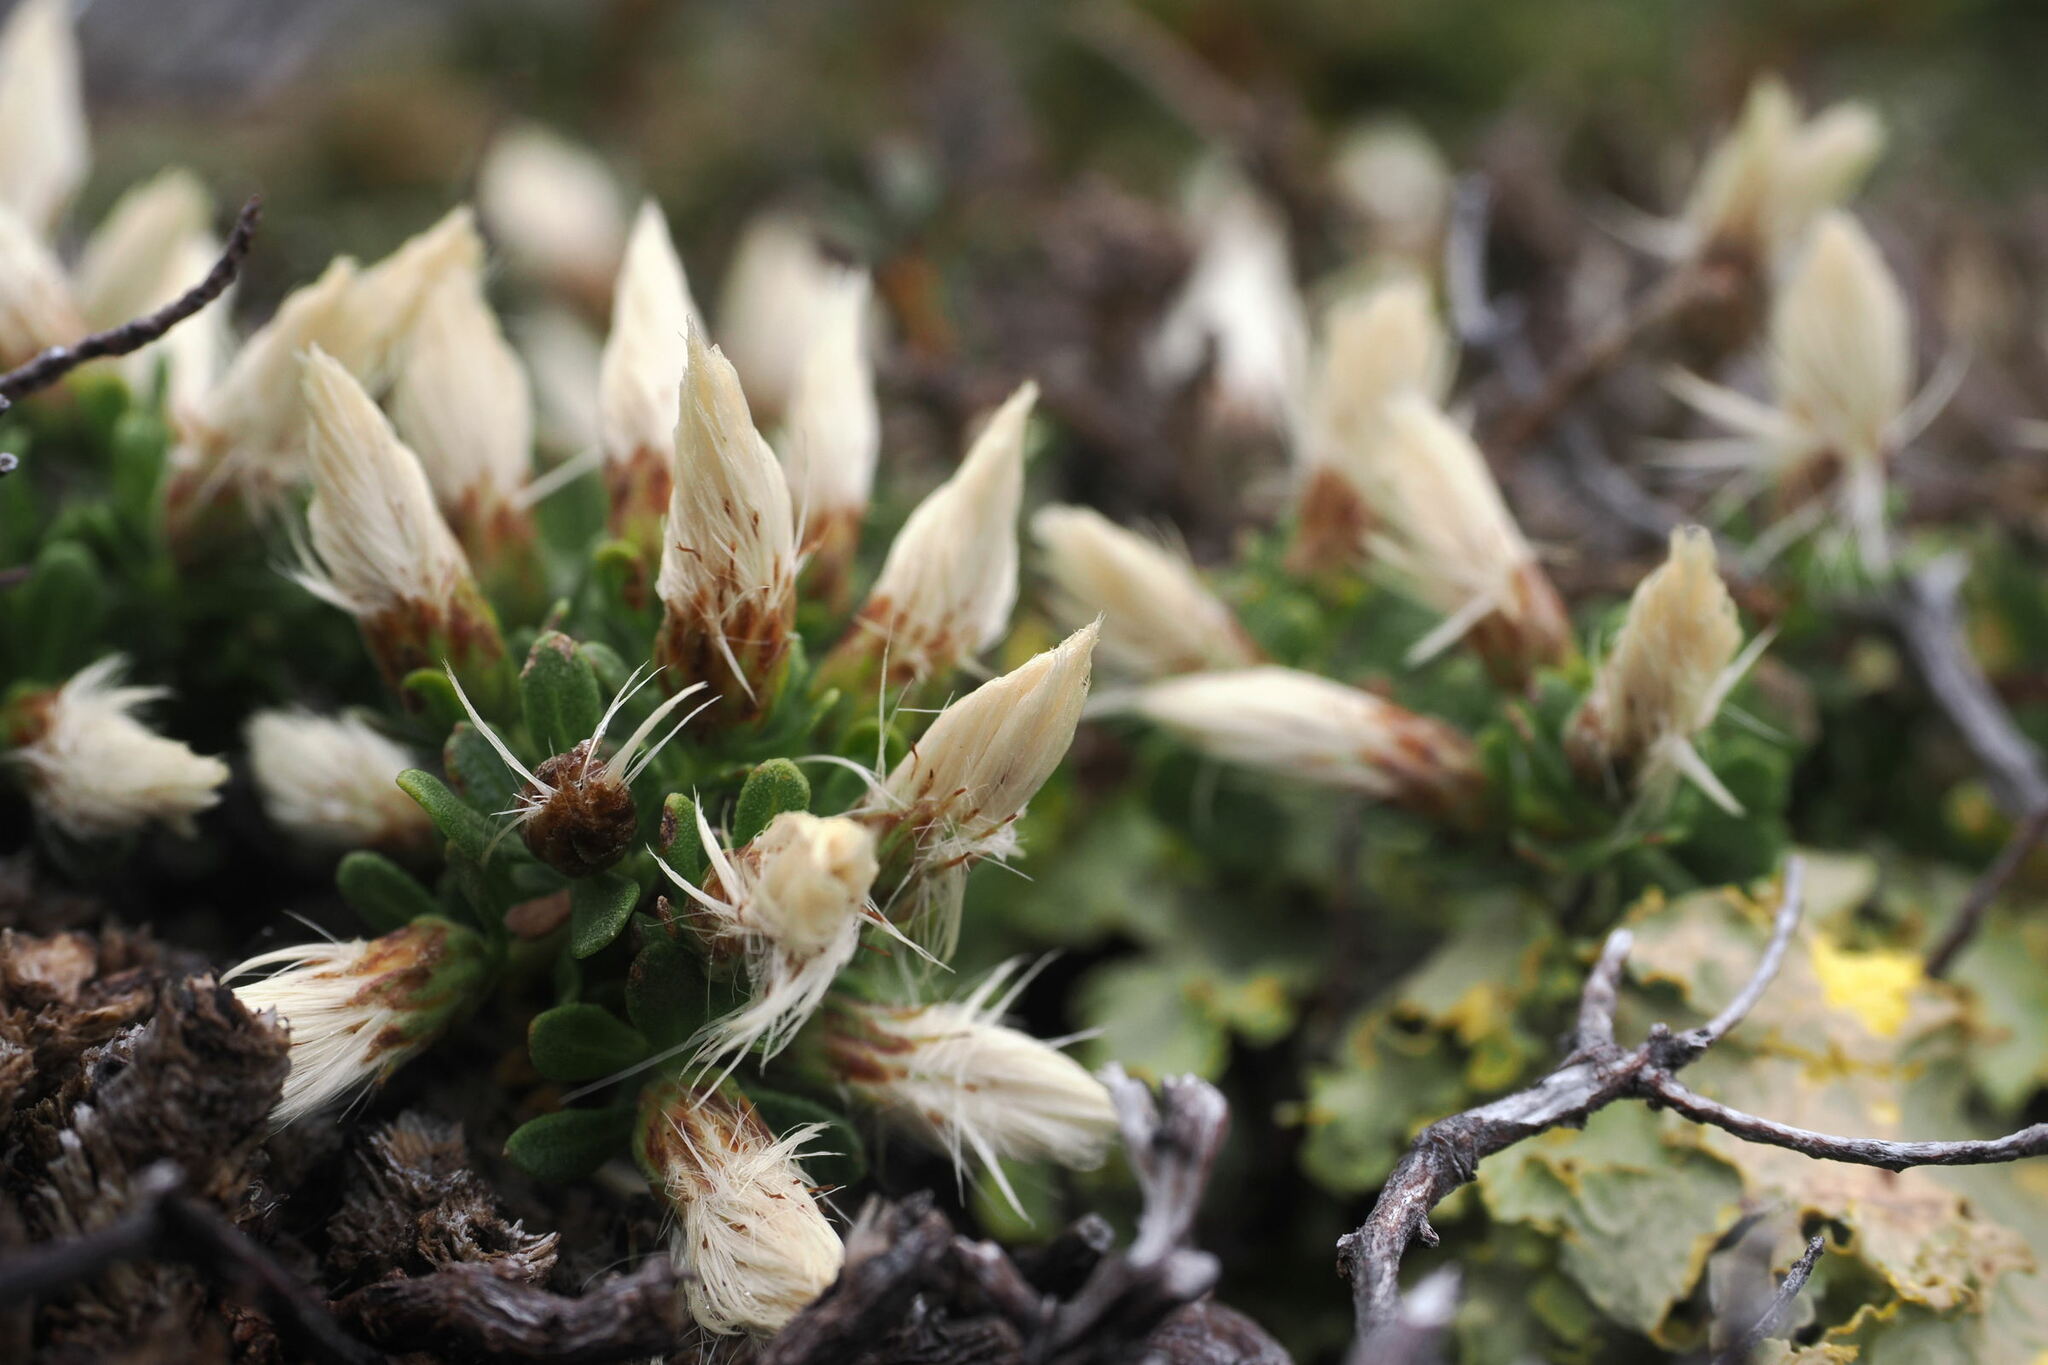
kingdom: Plantae
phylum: Tracheophyta
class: Magnoliopsida
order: Asterales
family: Asteraceae
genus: Baccharis
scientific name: Baccharis magellanica
